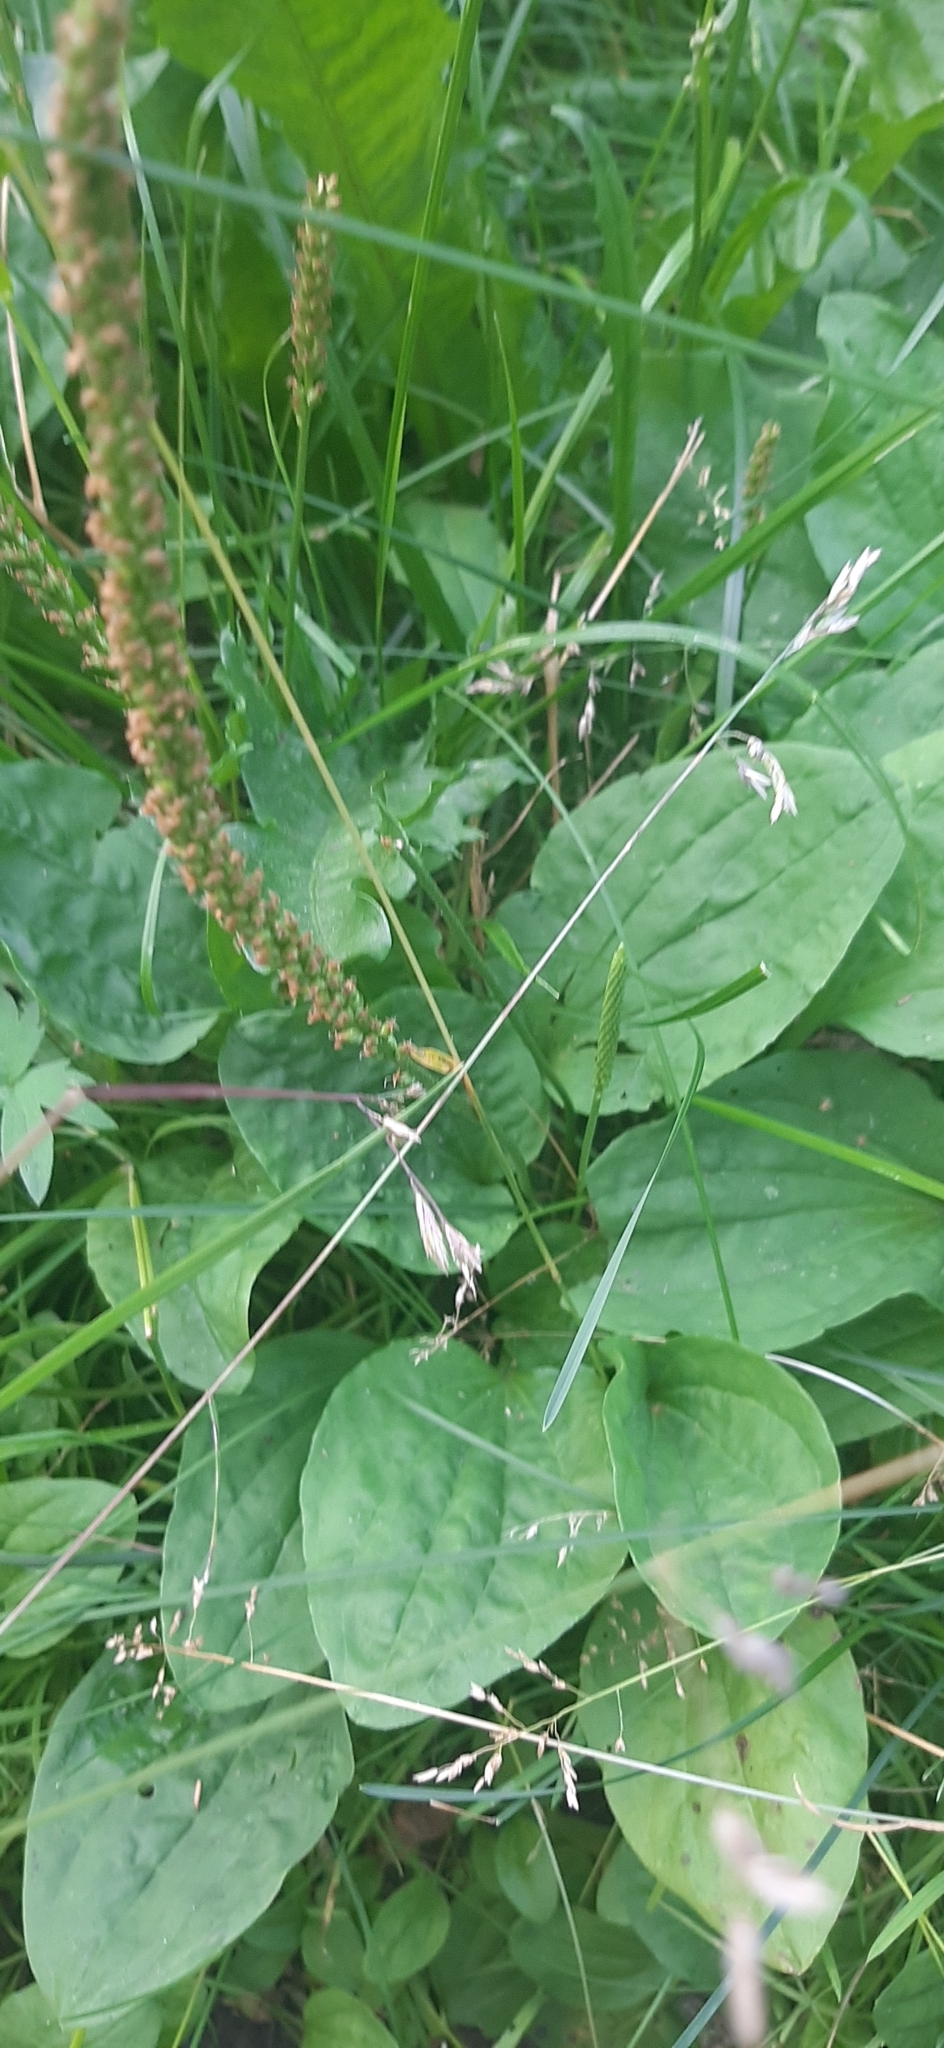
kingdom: Plantae
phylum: Tracheophyta
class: Magnoliopsida
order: Lamiales
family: Plantaginaceae
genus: Plantago
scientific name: Plantago major
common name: Common plantain
